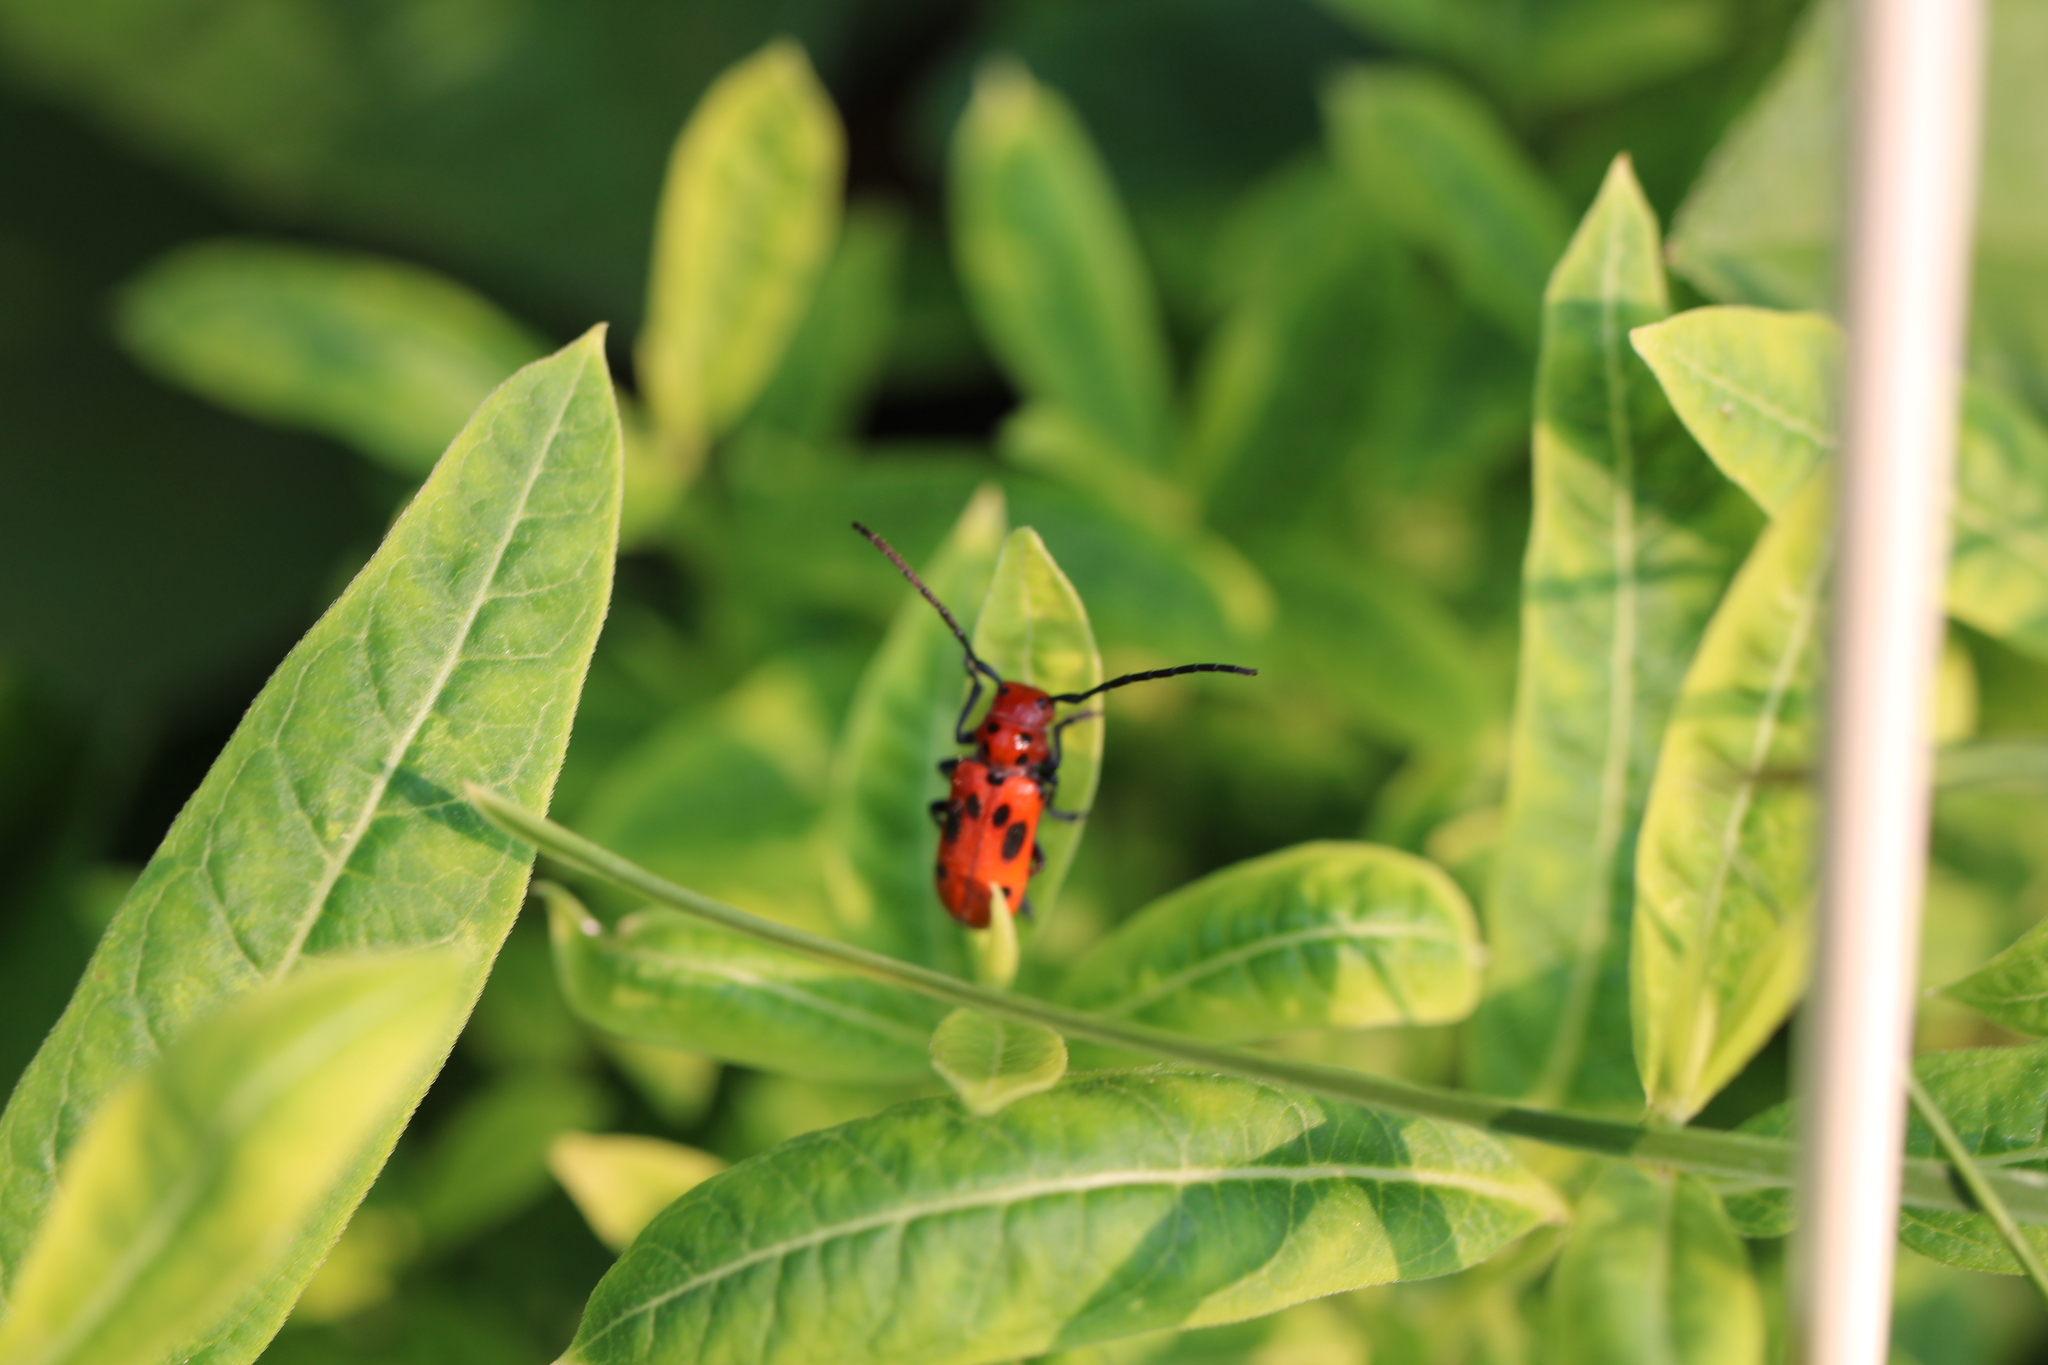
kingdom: Animalia
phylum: Arthropoda
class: Insecta
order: Coleoptera
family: Cerambycidae
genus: Tetraopes
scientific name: Tetraopes tetrophthalmus
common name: Red milkweed beetle
